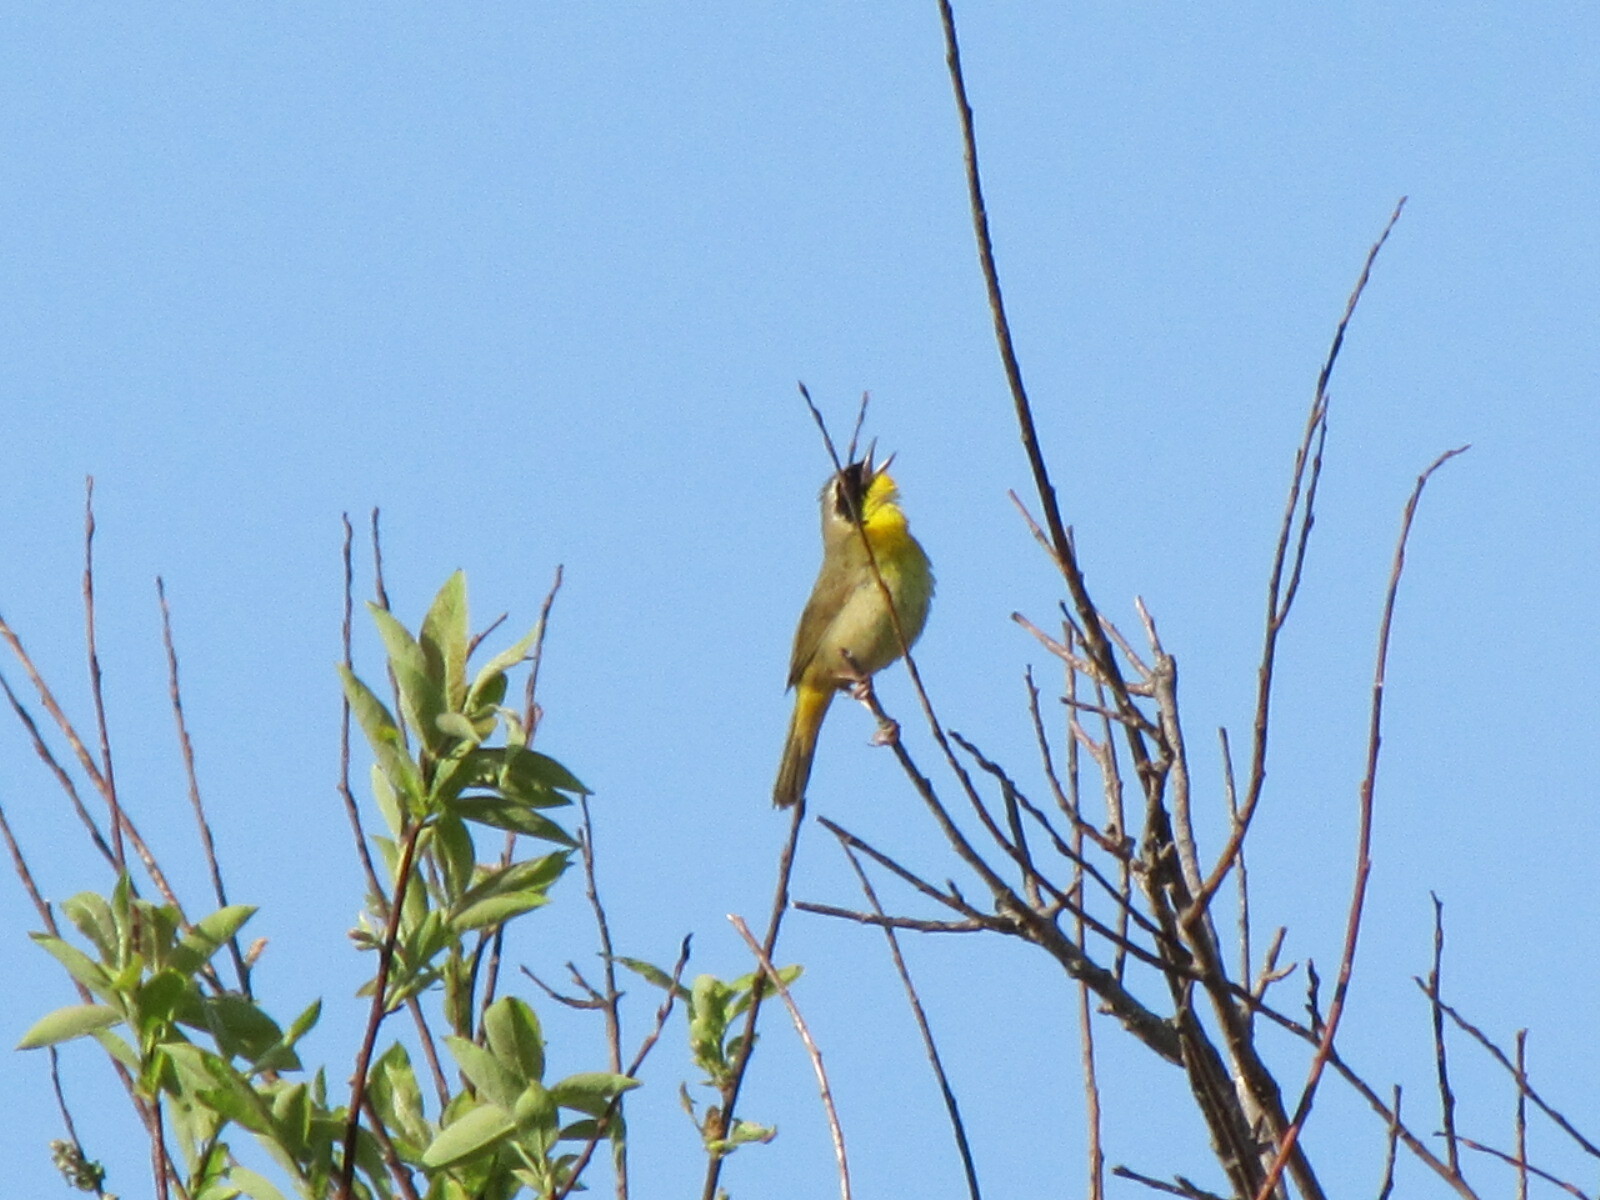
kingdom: Animalia
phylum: Chordata
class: Aves
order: Passeriformes
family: Parulidae
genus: Geothlypis
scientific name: Geothlypis trichas
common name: Common yellowthroat
